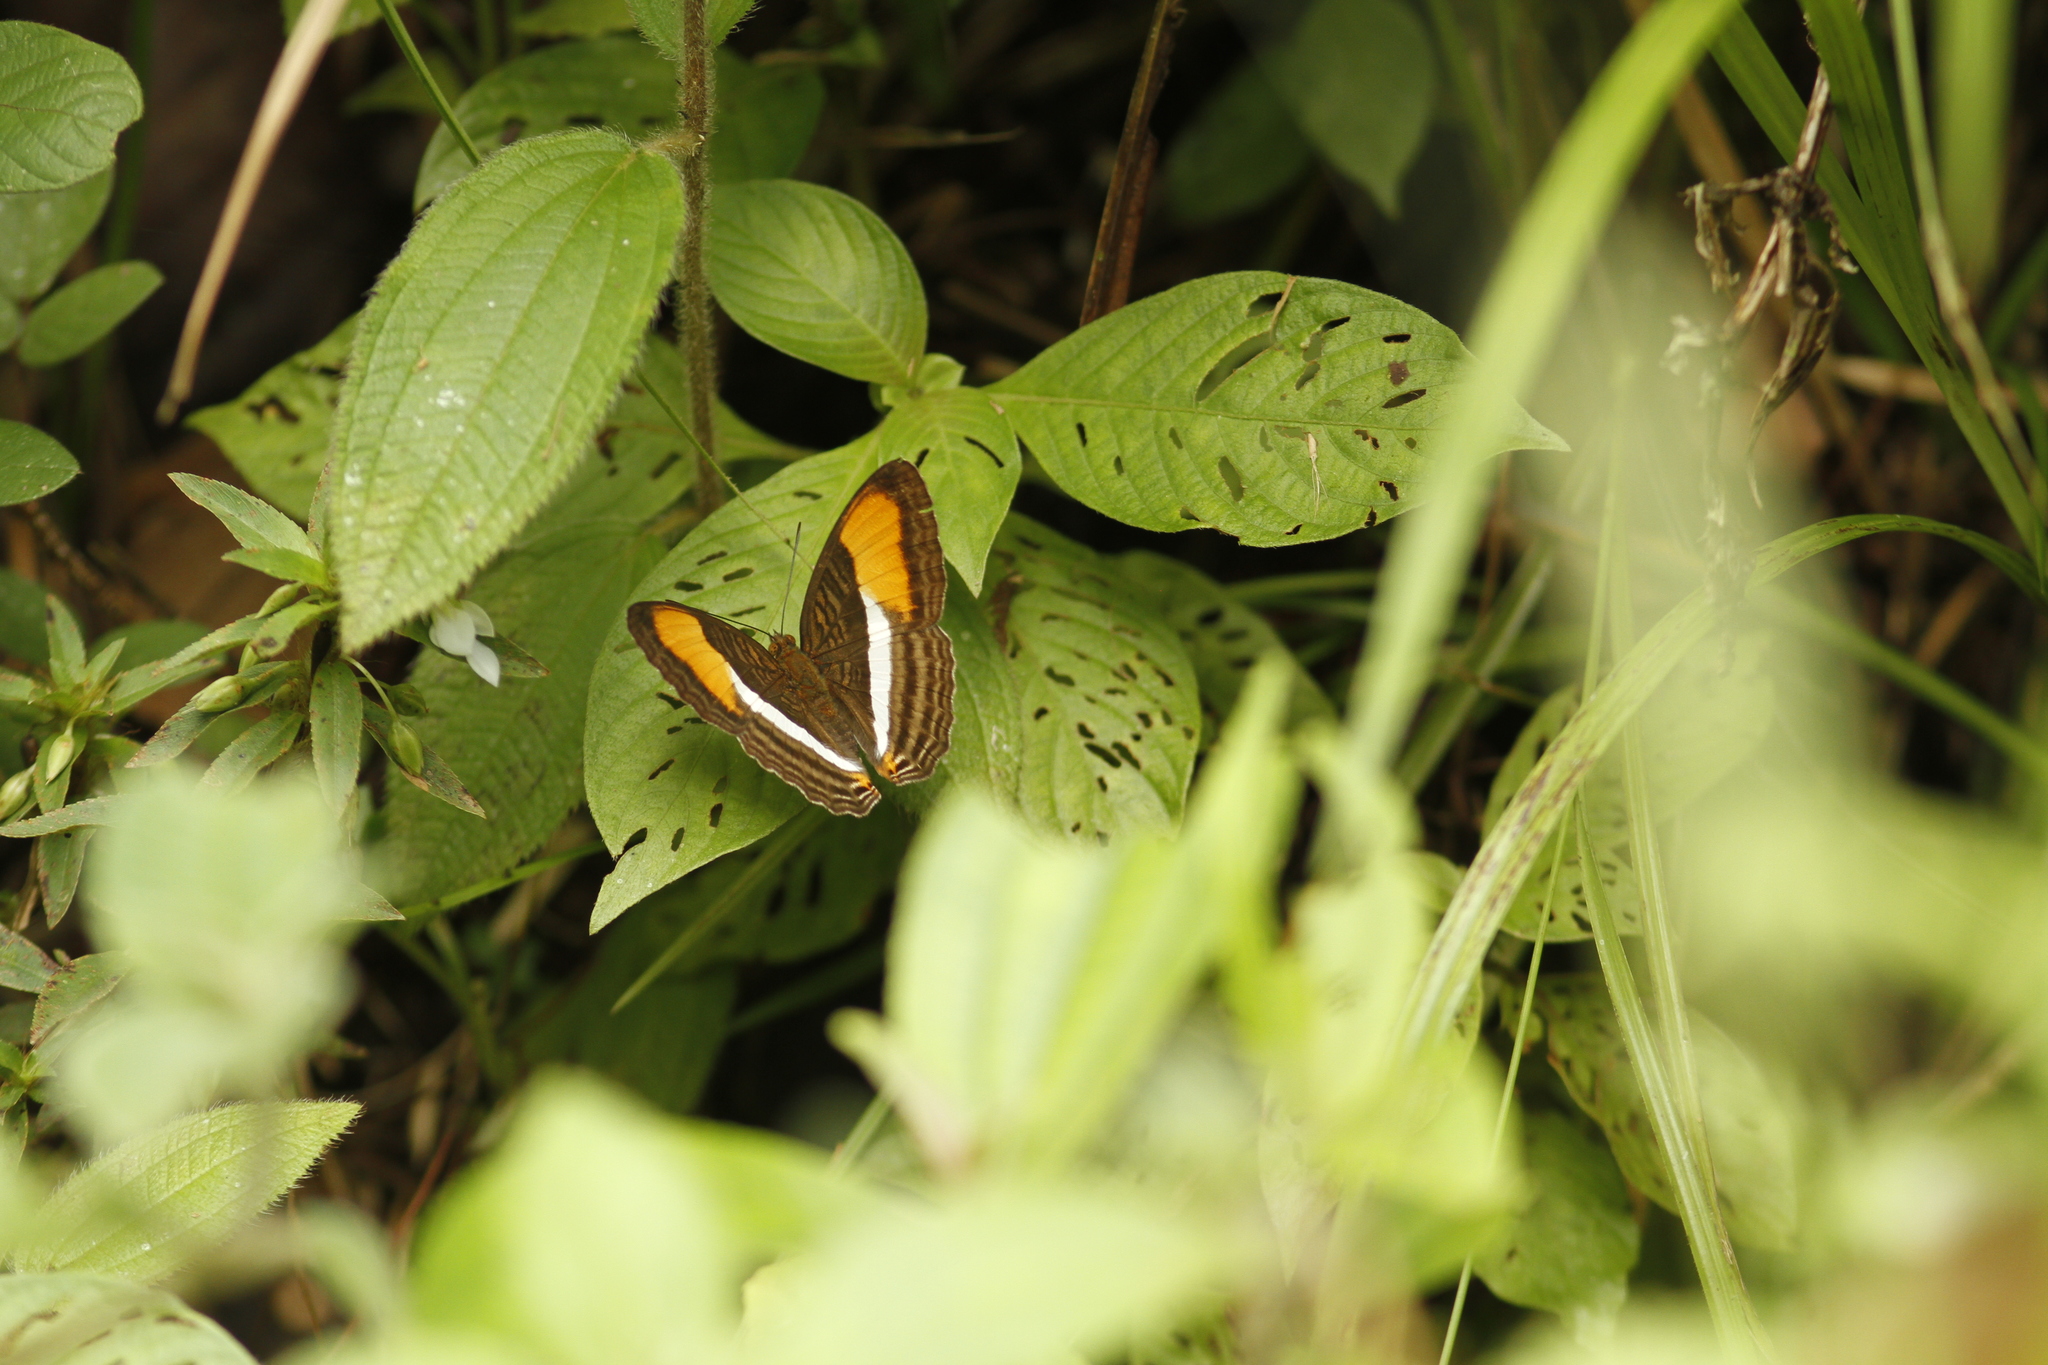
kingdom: Animalia
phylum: Arthropoda
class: Insecta
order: Lepidoptera
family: Nymphalidae
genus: Limenitis
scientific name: Limenitis cytherea
